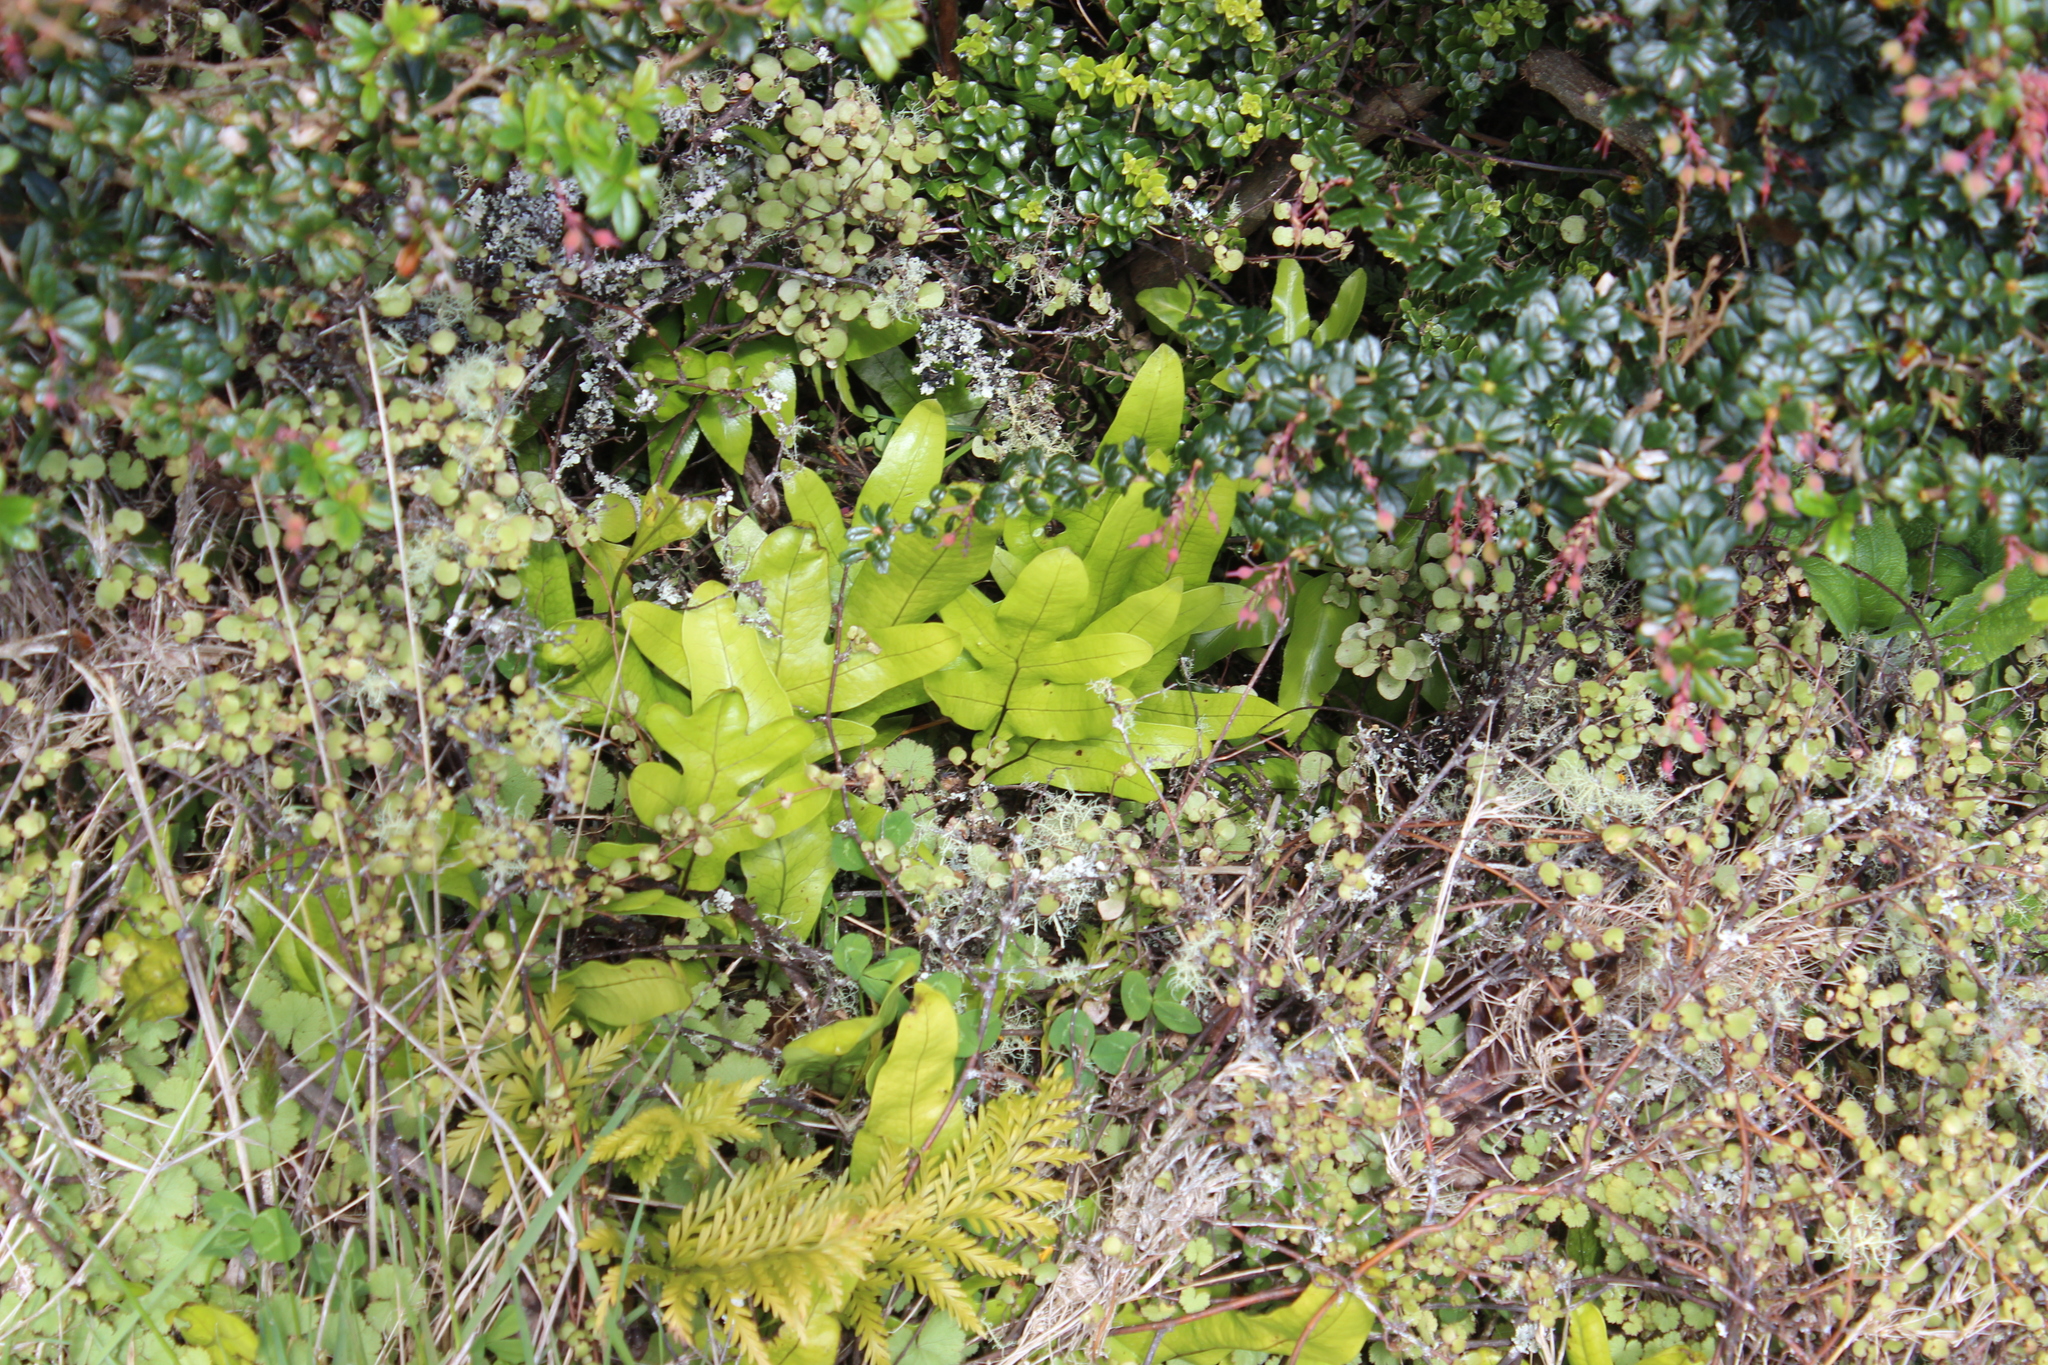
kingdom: Plantae
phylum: Tracheophyta
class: Polypodiopsida
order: Polypodiales
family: Polypodiaceae
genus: Lecanopteris
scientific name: Lecanopteris pustulata
